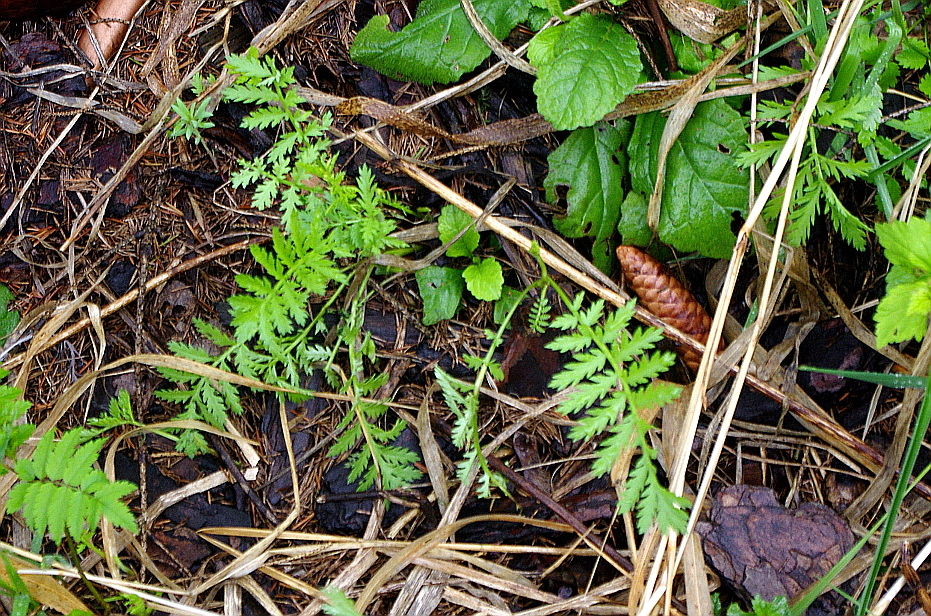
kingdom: Plantae
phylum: Tracheophyta
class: Magnoliopsida
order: Asterales
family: Asteraceae
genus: Tanacetum
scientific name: Tanacetum vulgare
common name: Common tansy
